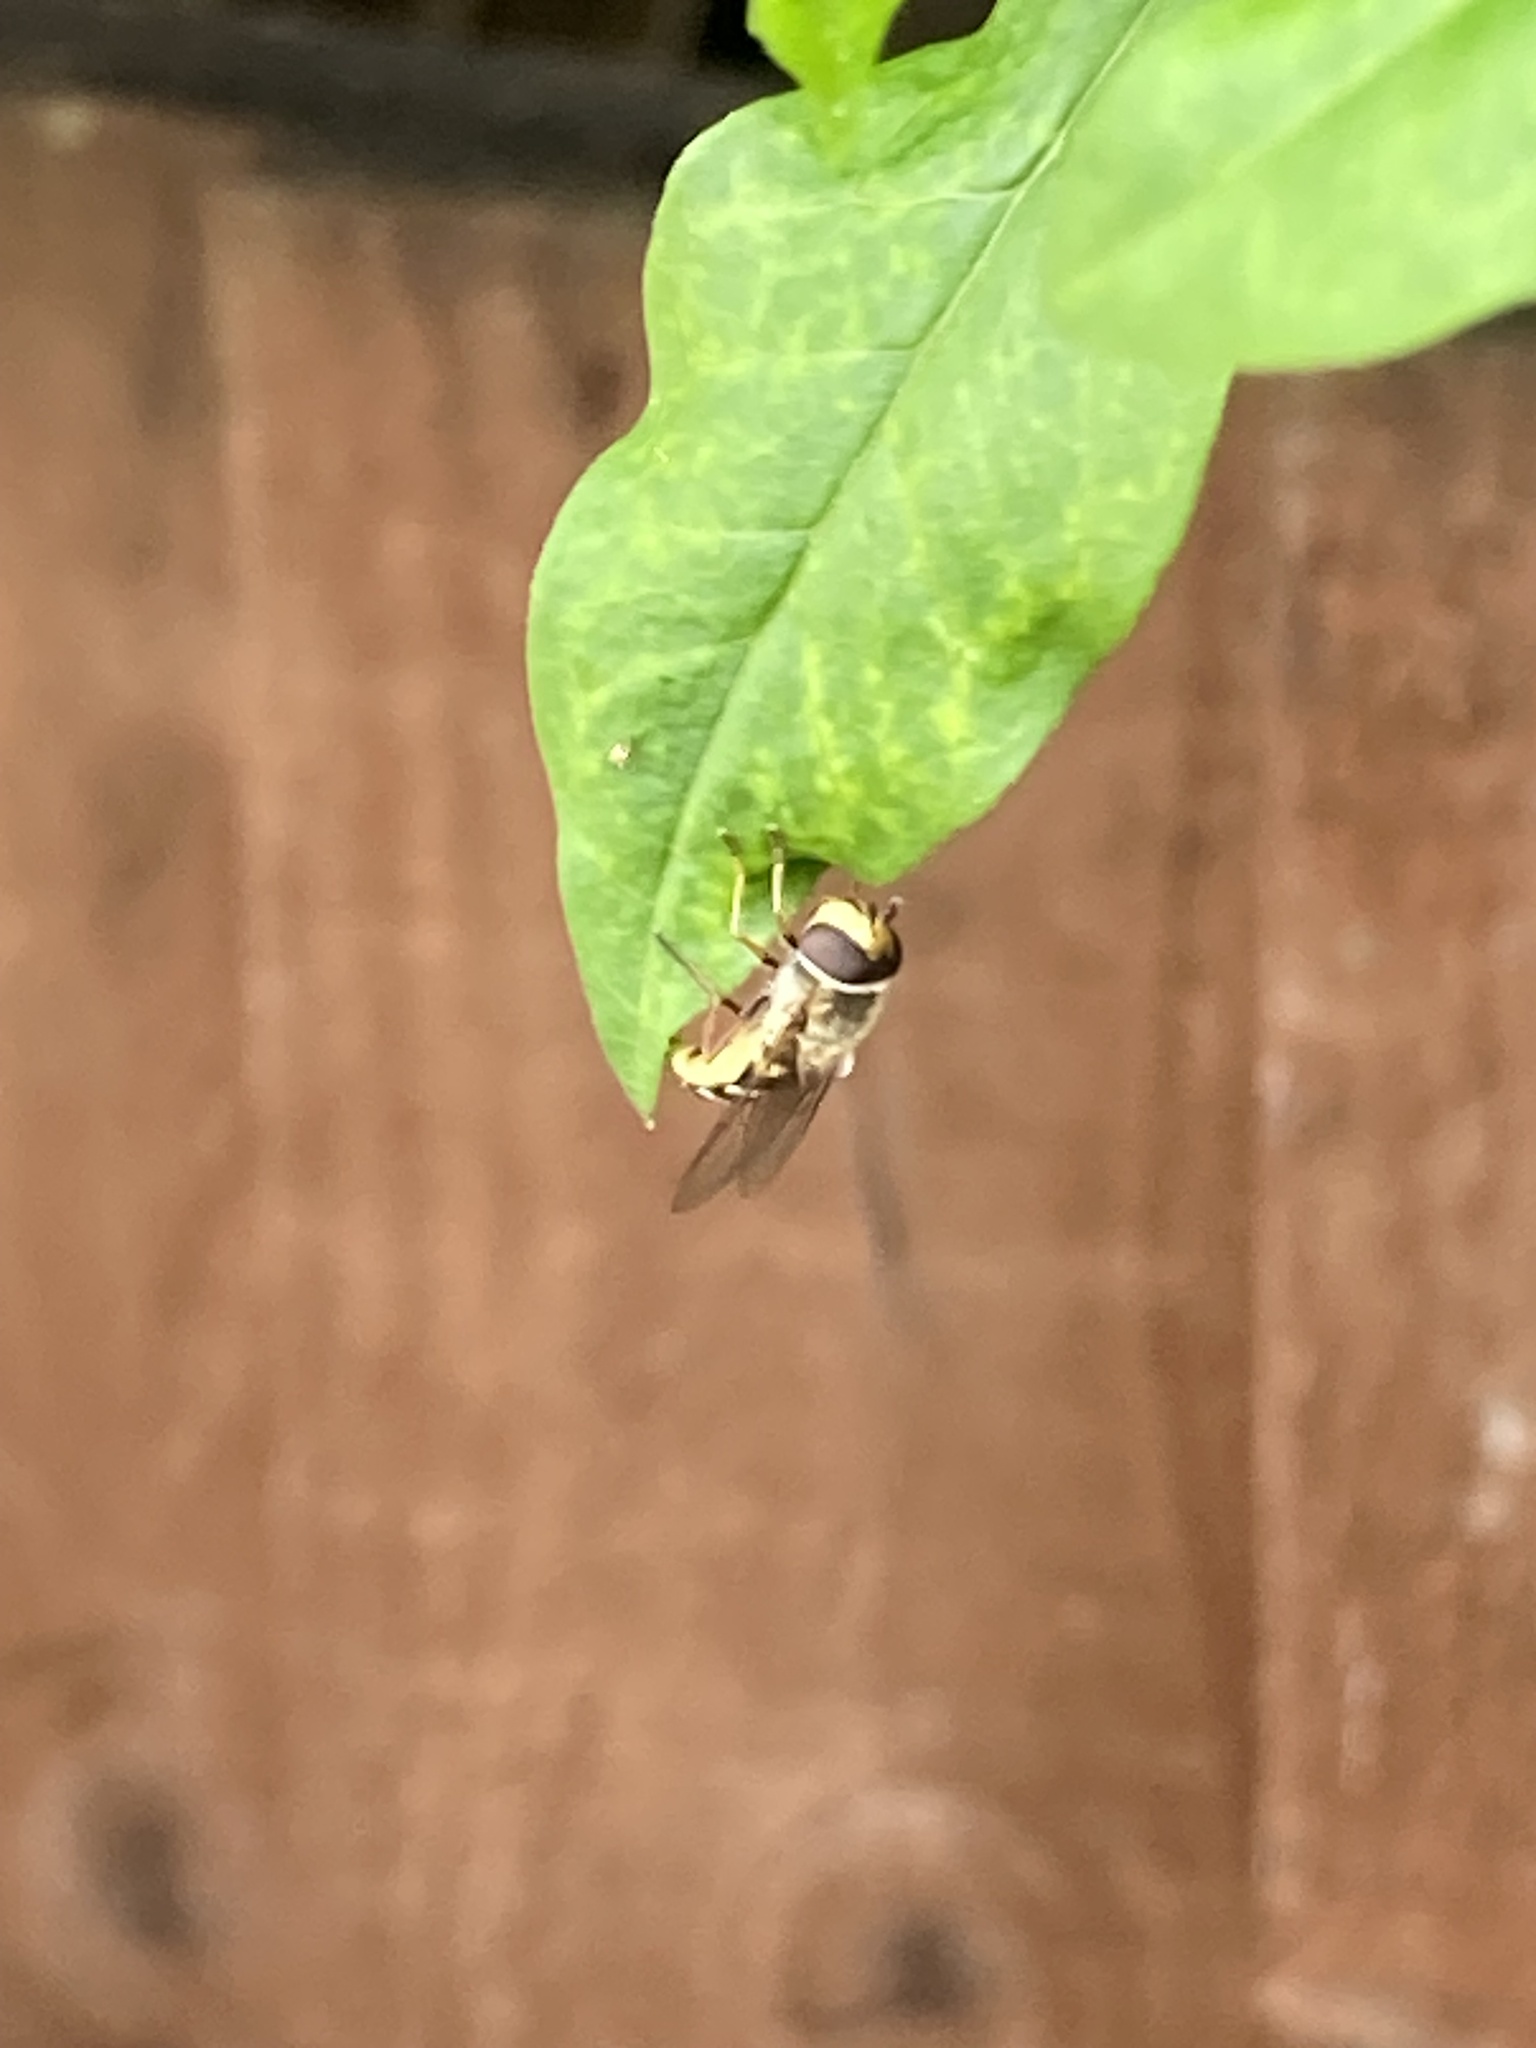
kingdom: Animalia
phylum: Arthropoda
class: Insecta
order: Diptera
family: Syrphidae
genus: Eupeodes
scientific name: Eupeodes corollae
